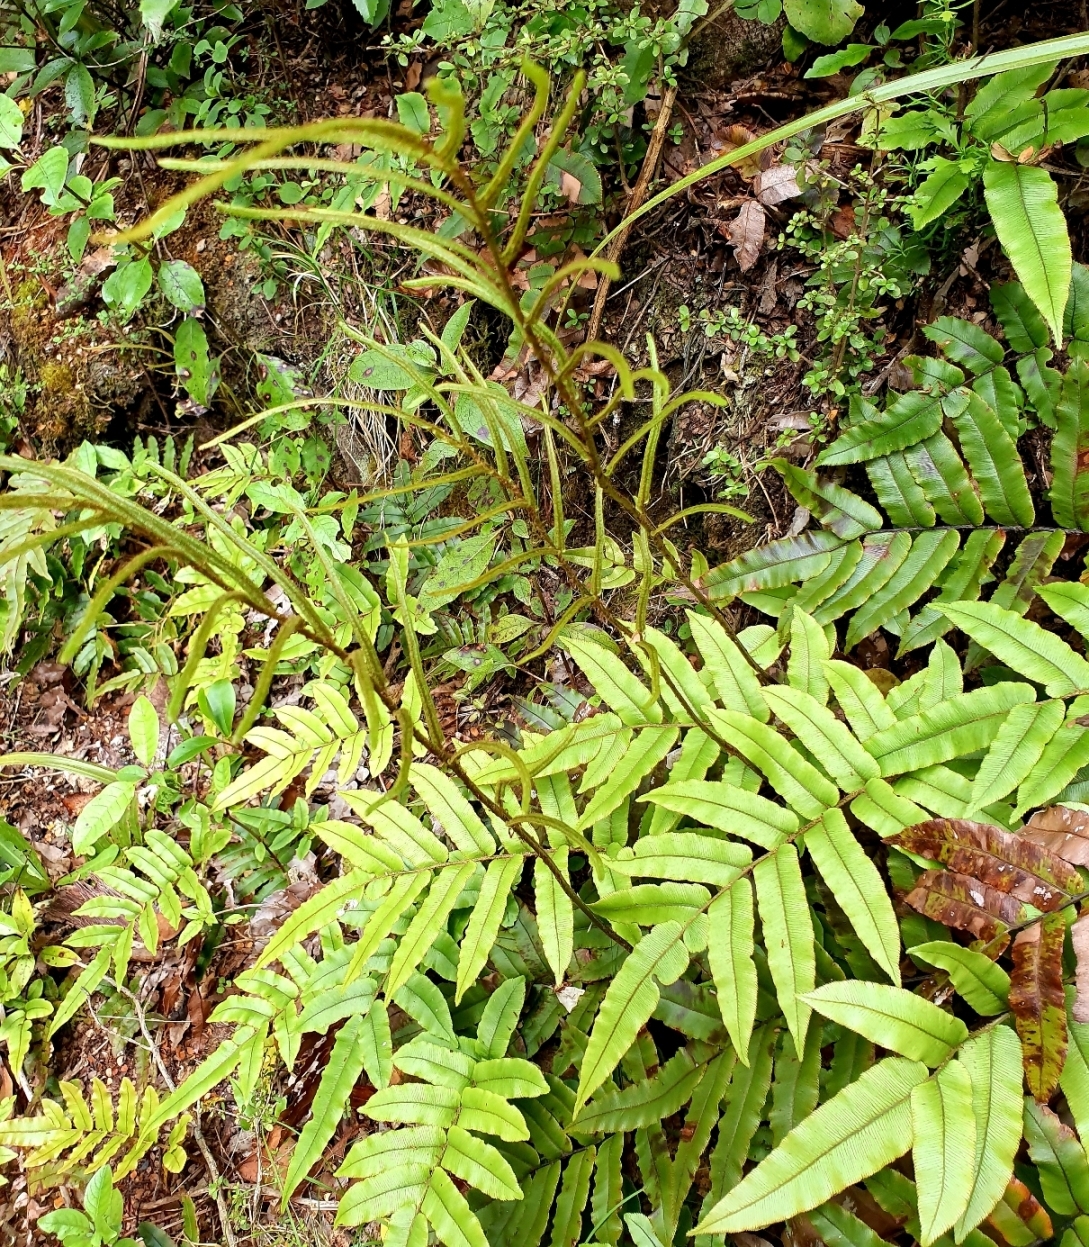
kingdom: Plantae
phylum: Tracheophyta
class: Polypodiopsida
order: Polypodiales
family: Blechnaceae
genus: Parablechnum
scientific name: Parablechnum procerum
